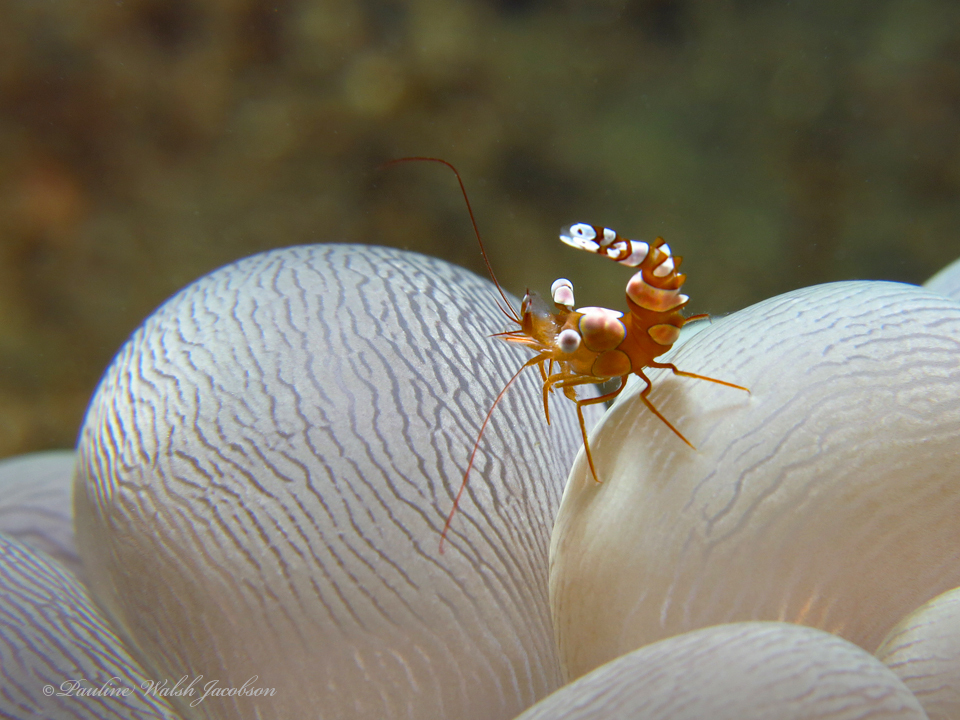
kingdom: Animalia
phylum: Arthropoda
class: Malacostraca
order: Decapoda
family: Thoridae
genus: Thor
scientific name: Thor amboinensis
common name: Squat anemone shrimp
